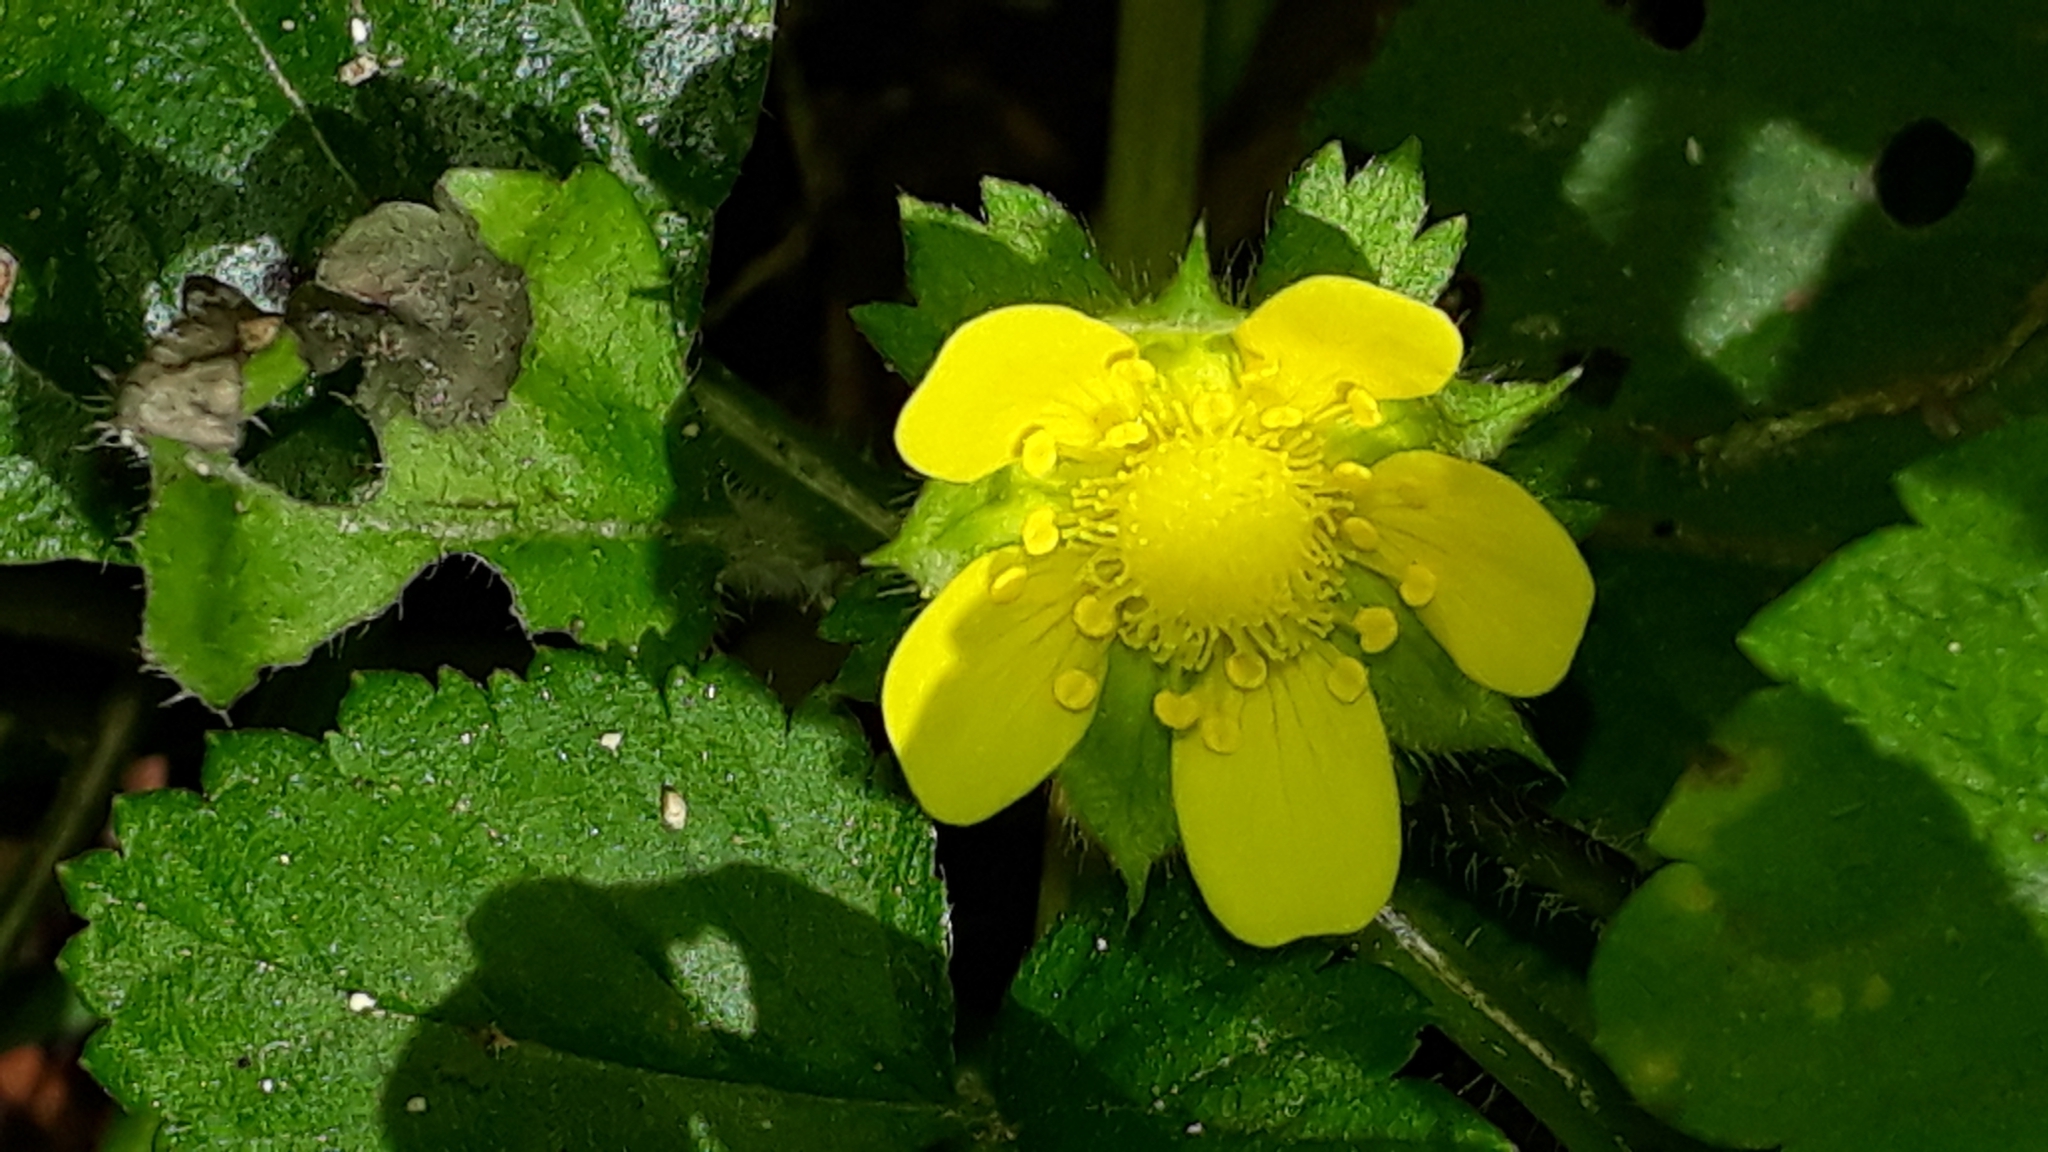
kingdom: Plantae
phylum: Tracheophyta
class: Magnoliopsida
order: Rosales
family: Rosaceae
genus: Potentilla
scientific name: Potentilla indica
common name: Yellow-flowered strawberry
